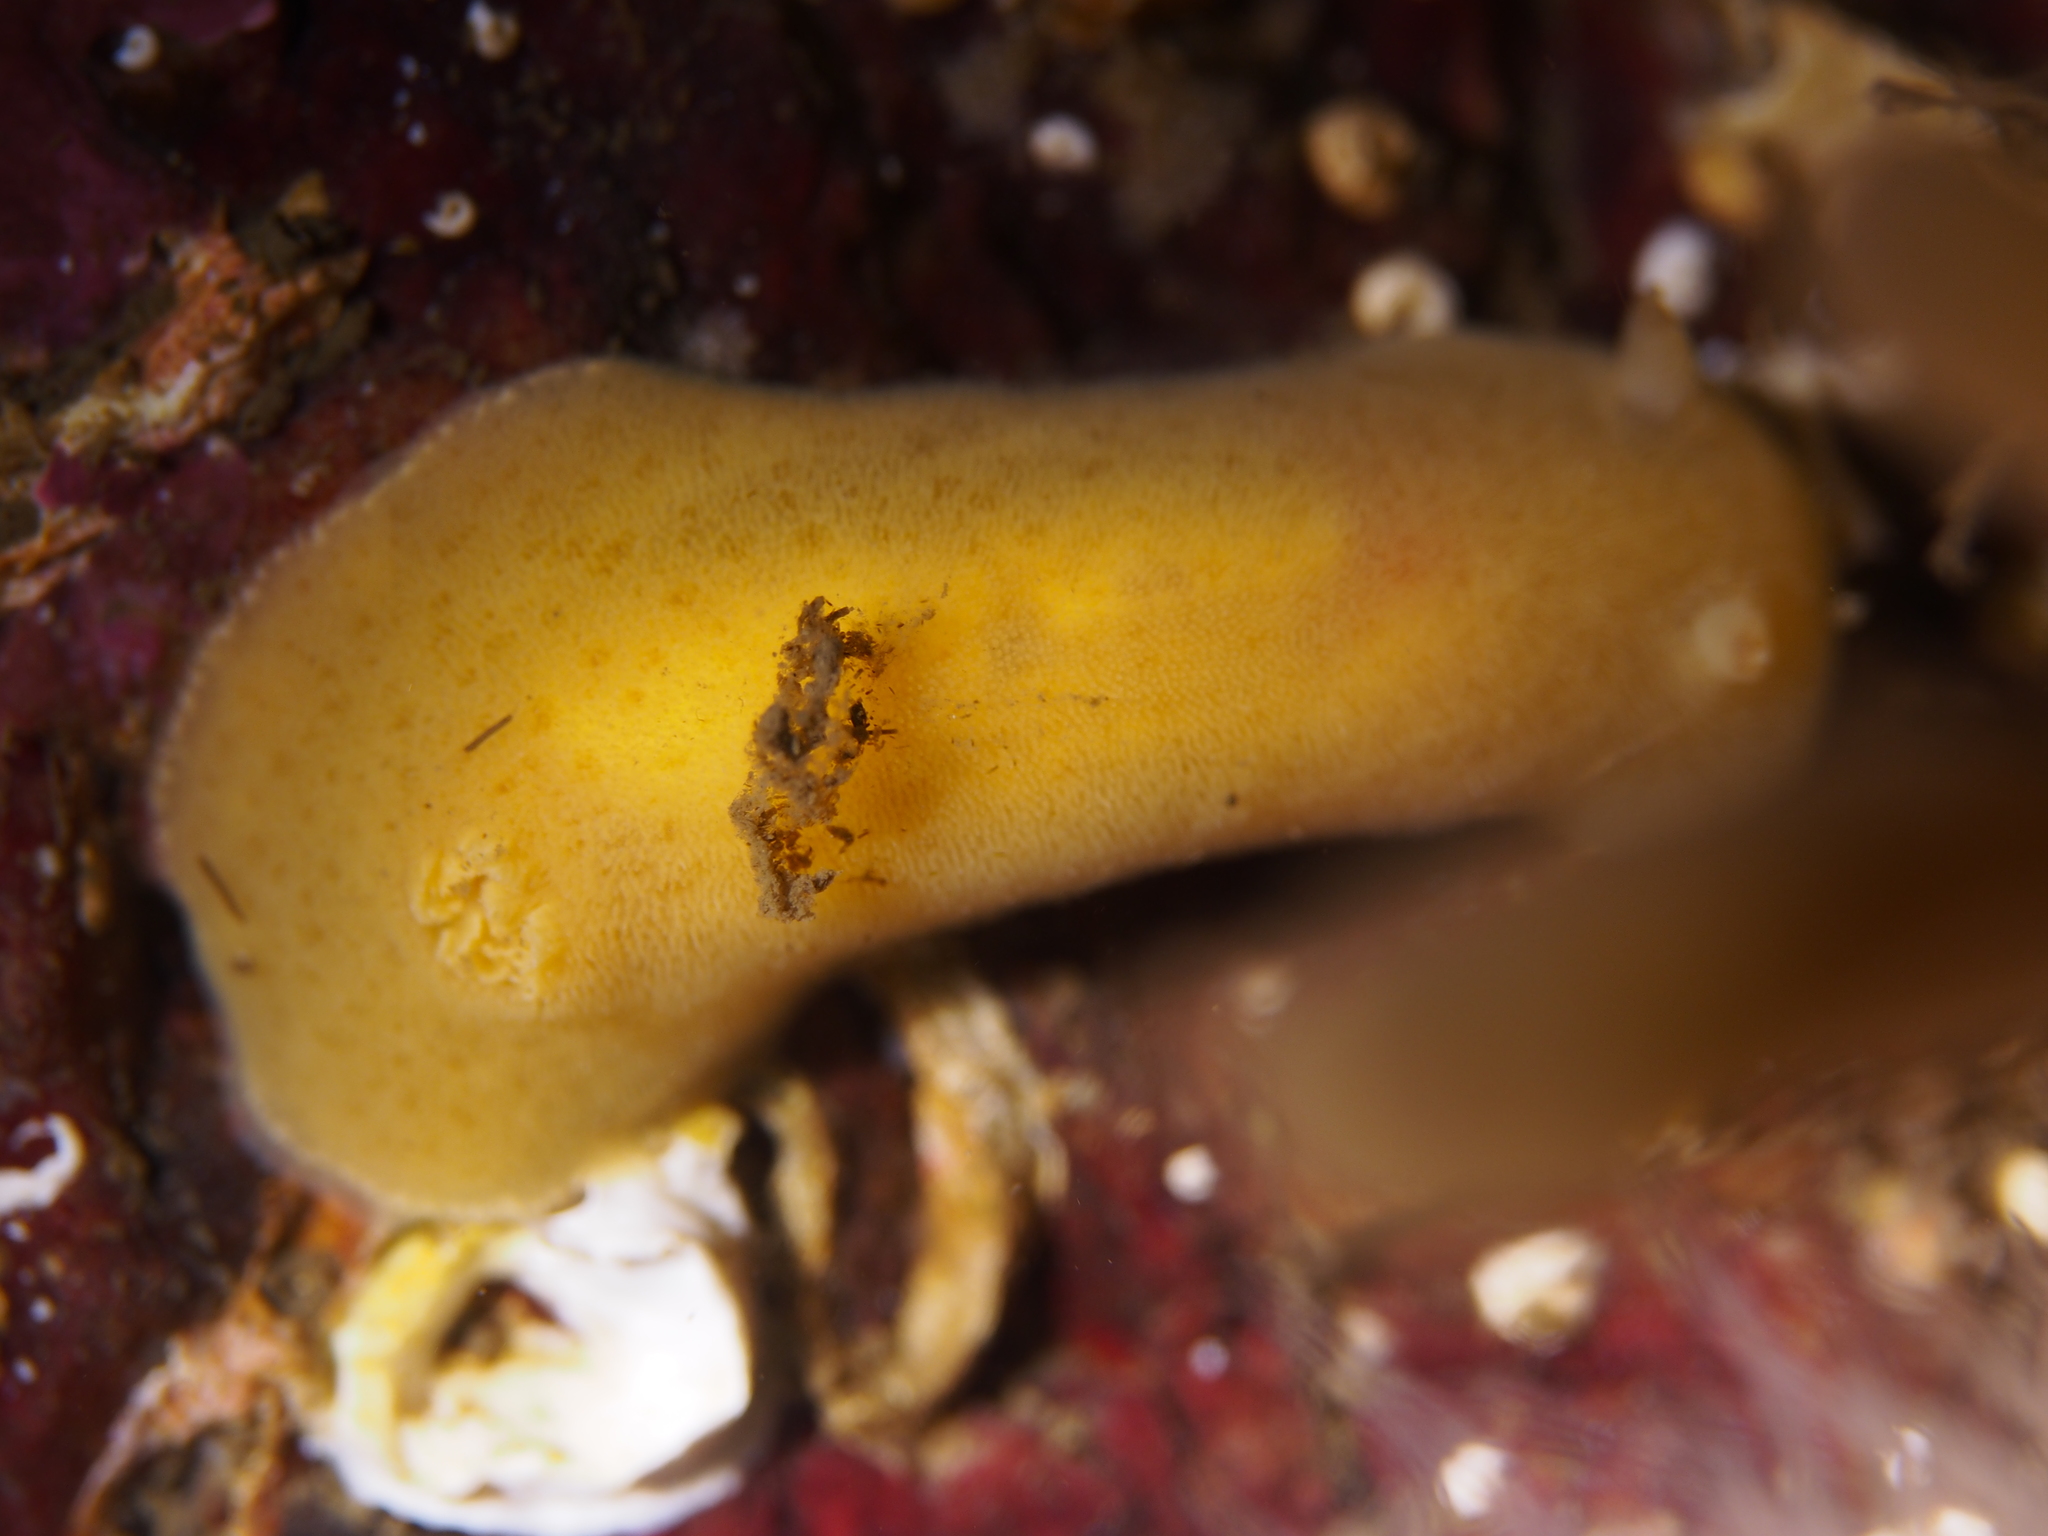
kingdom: Animalia
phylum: Mollusca
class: Gastropoda
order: Nudibranchia
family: Discodorididae
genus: Jorunna
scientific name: Jorunna tomentosa
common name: Grey sea slug
